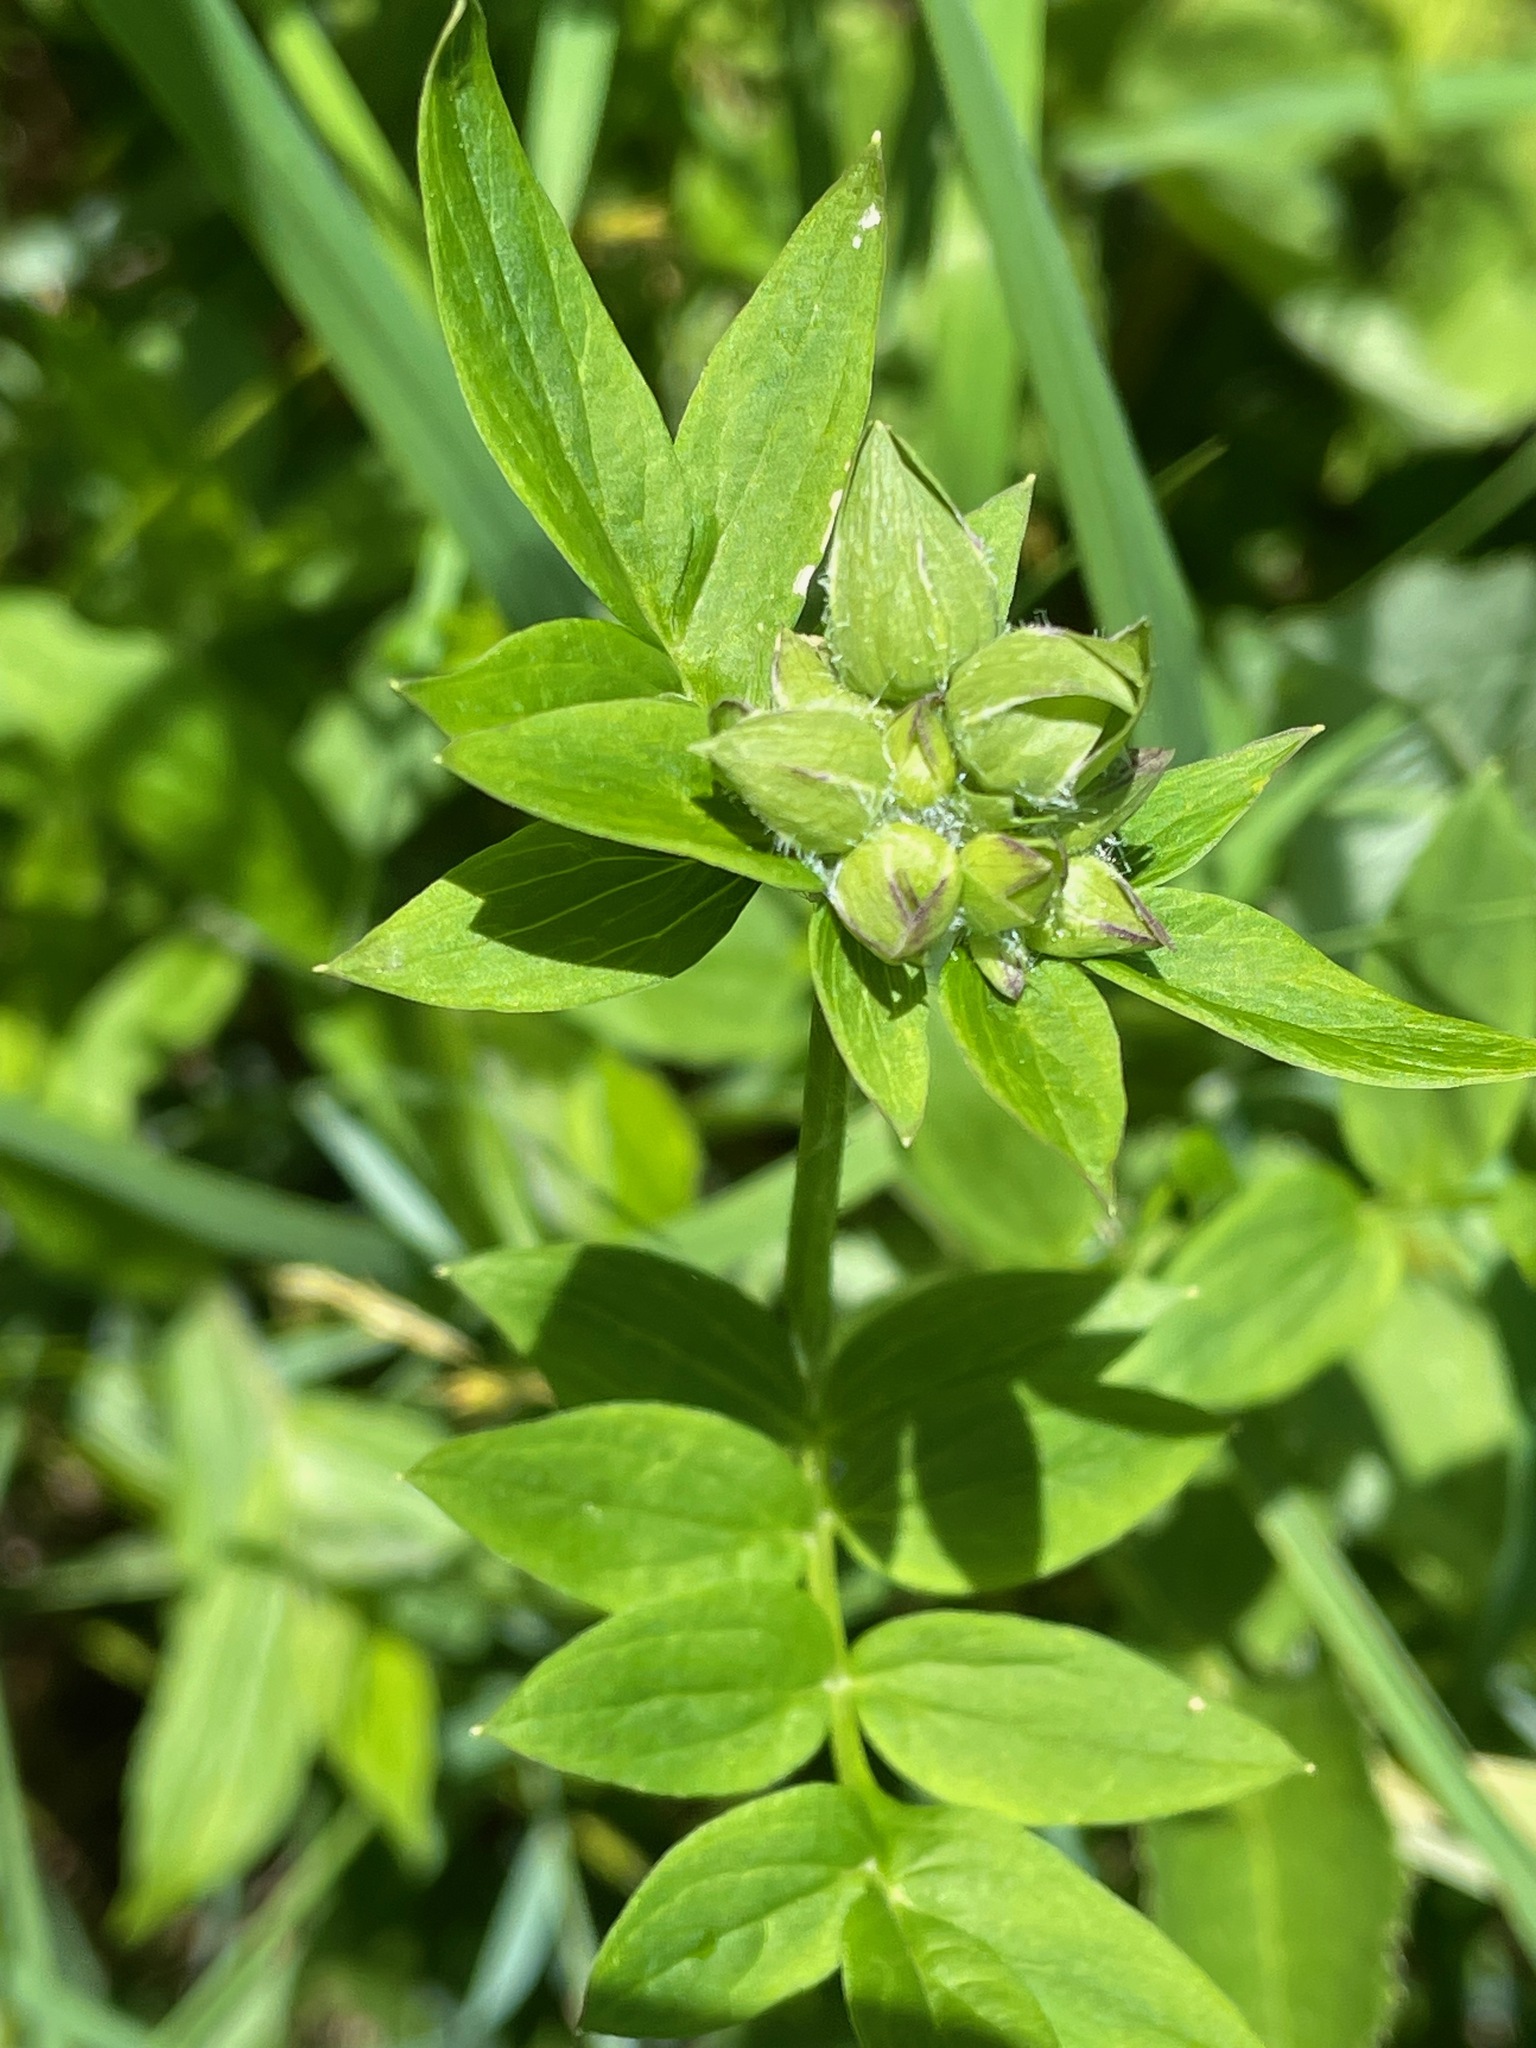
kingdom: Plantae
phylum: Tracheophyta
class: Magnoliopsida
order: Ericales
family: Polemoniaceae
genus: Polemonium
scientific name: Polemonium vanbruntiae
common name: Bog jacob's-ladder
